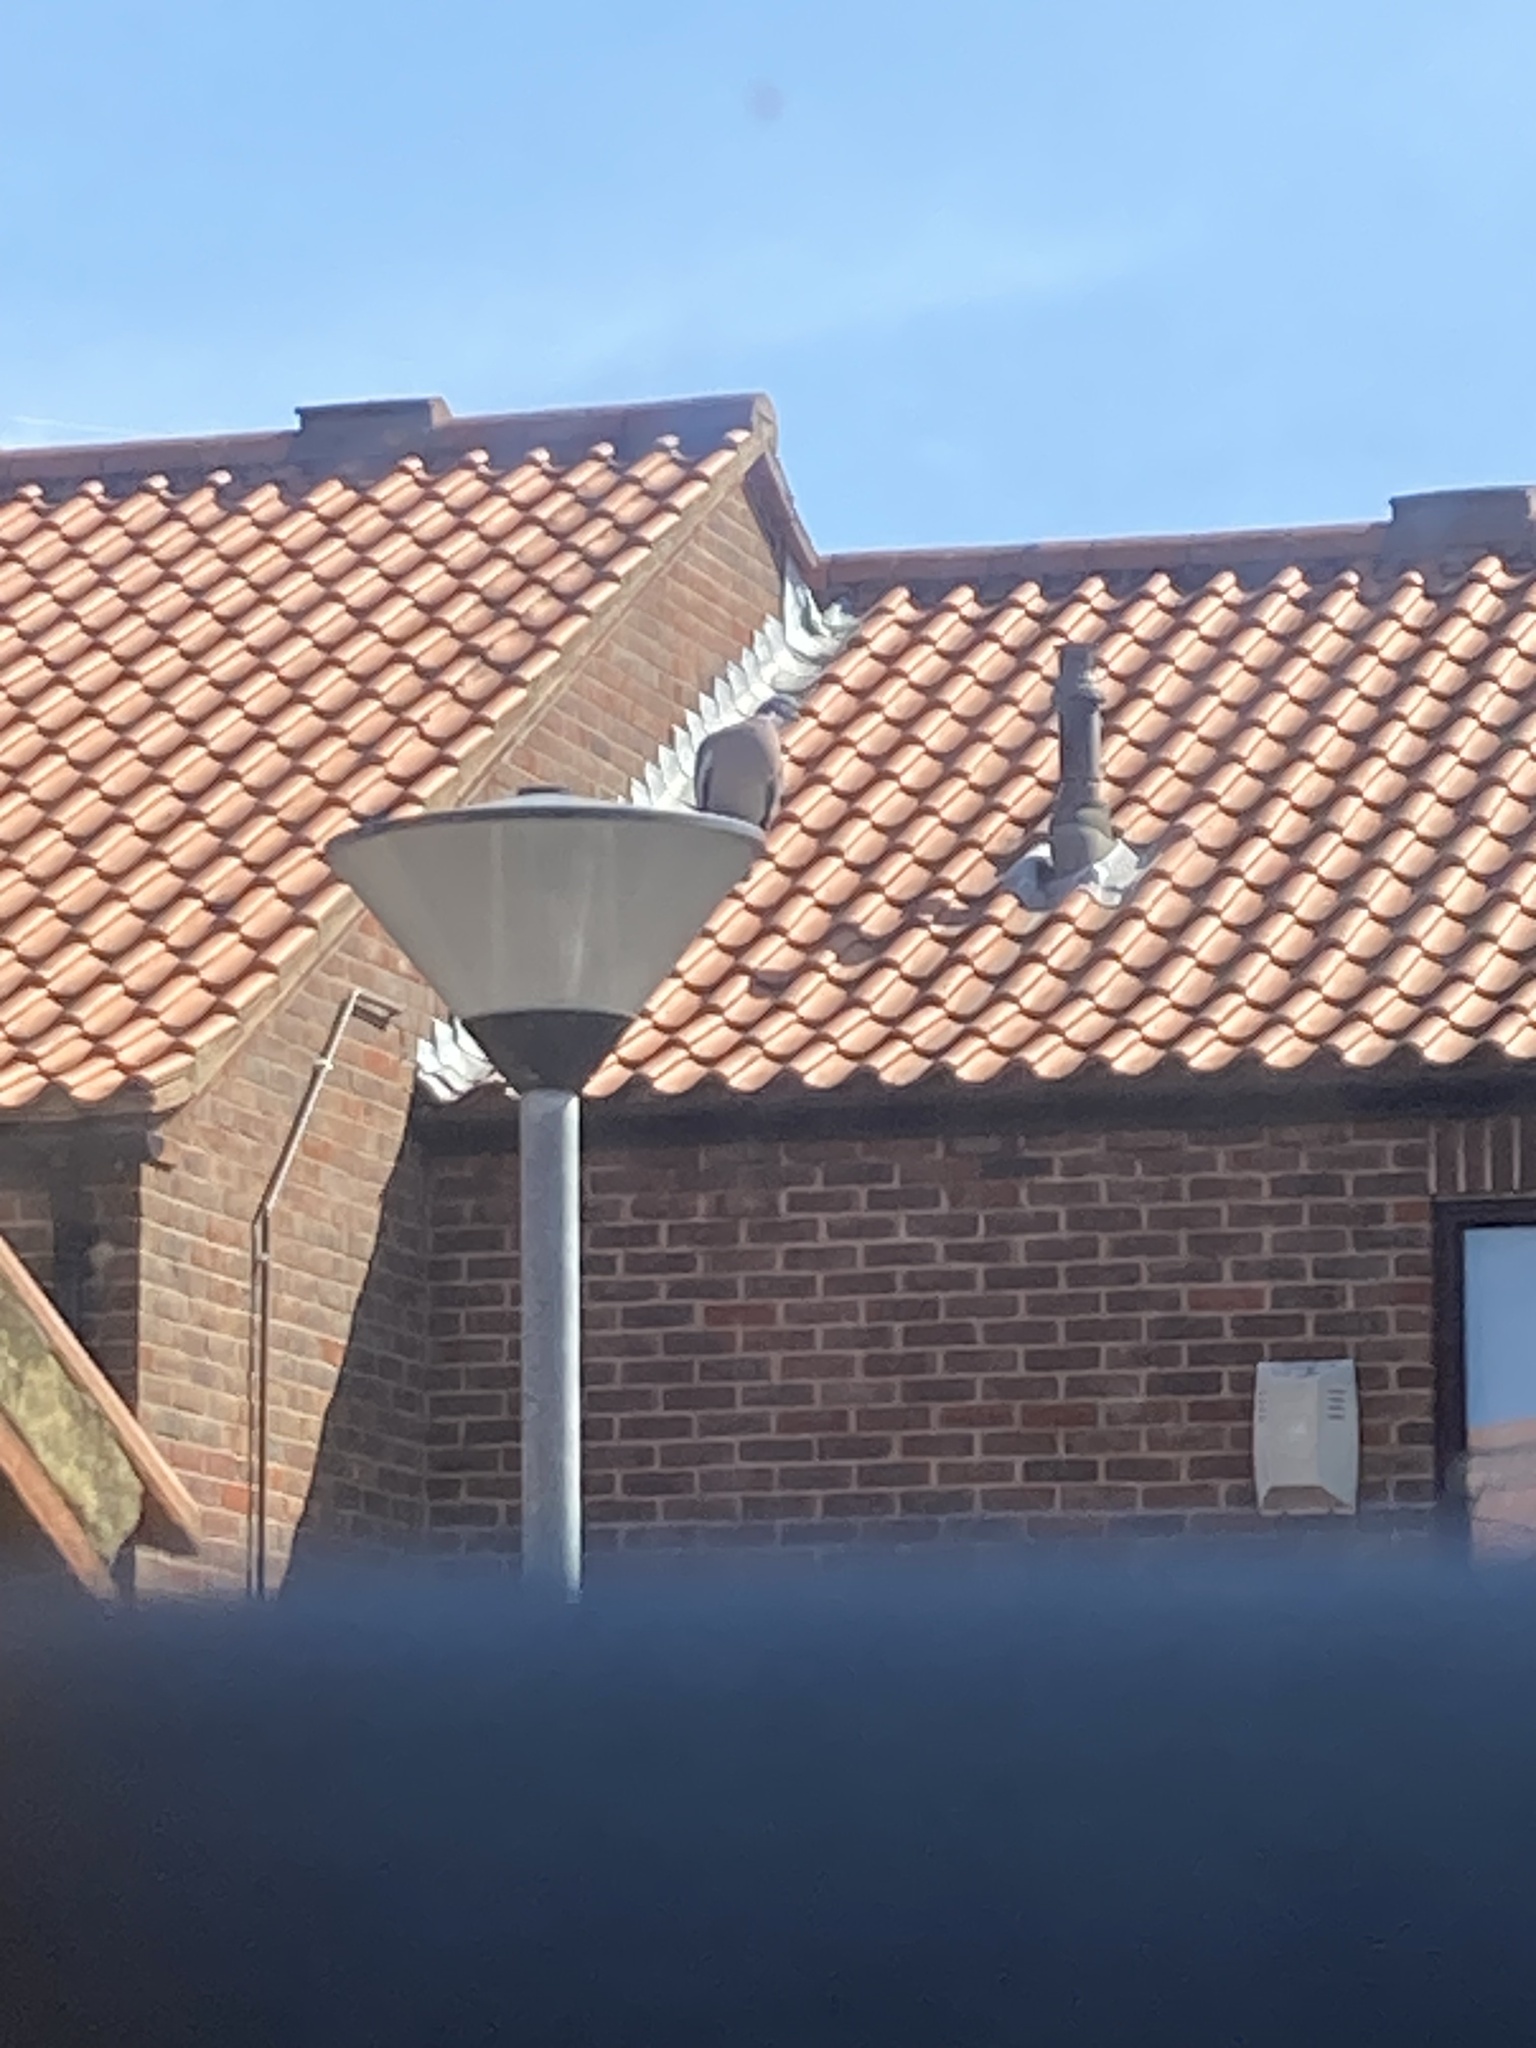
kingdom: Animalia
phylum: Chordata
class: Aves
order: Columbiformes
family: Columbidae
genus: Columba
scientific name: Columba palumbus
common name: Common wood pigeon
